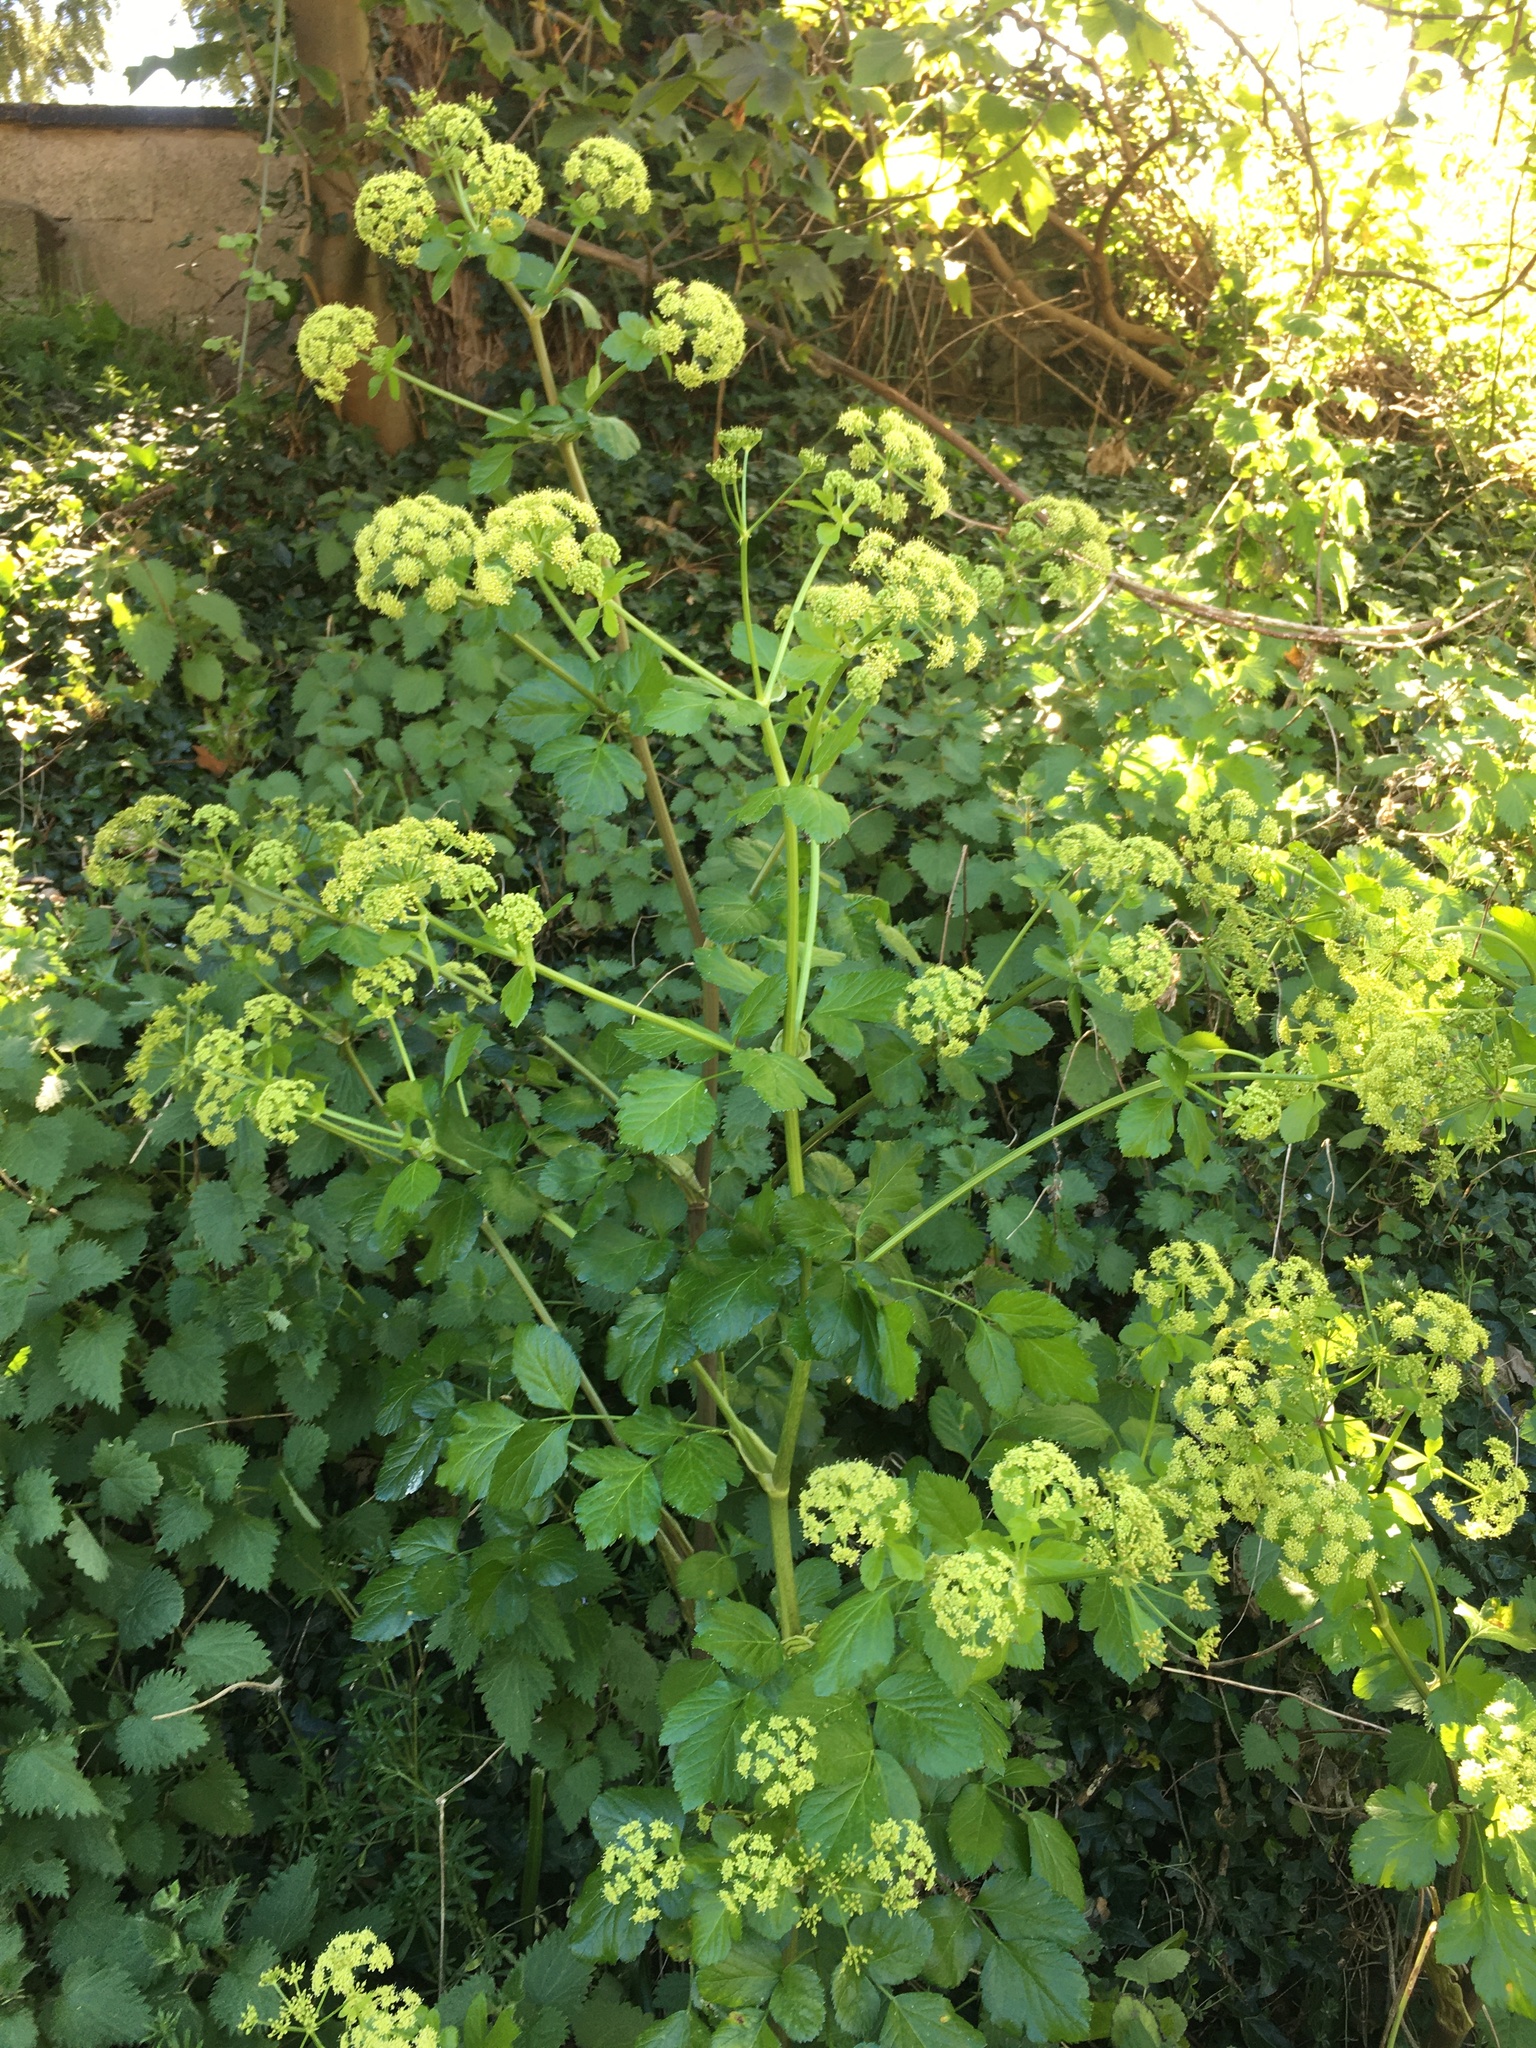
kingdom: Plantae
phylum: Tracheophyta
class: Magnoliopsida
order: Apiales
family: Apiaceae
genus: Smyrnium
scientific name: Smyrnium olusatrum
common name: Alexanders
